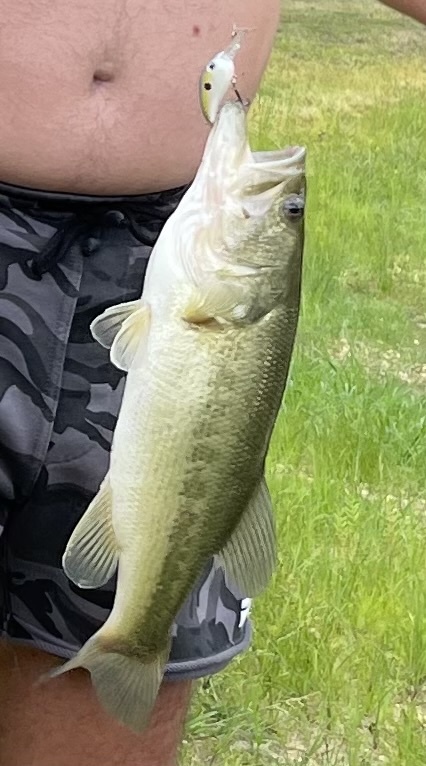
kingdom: Animalia
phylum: Chordata
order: Perciformes
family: Centrarchidae
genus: Micropterus
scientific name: Micropterus
